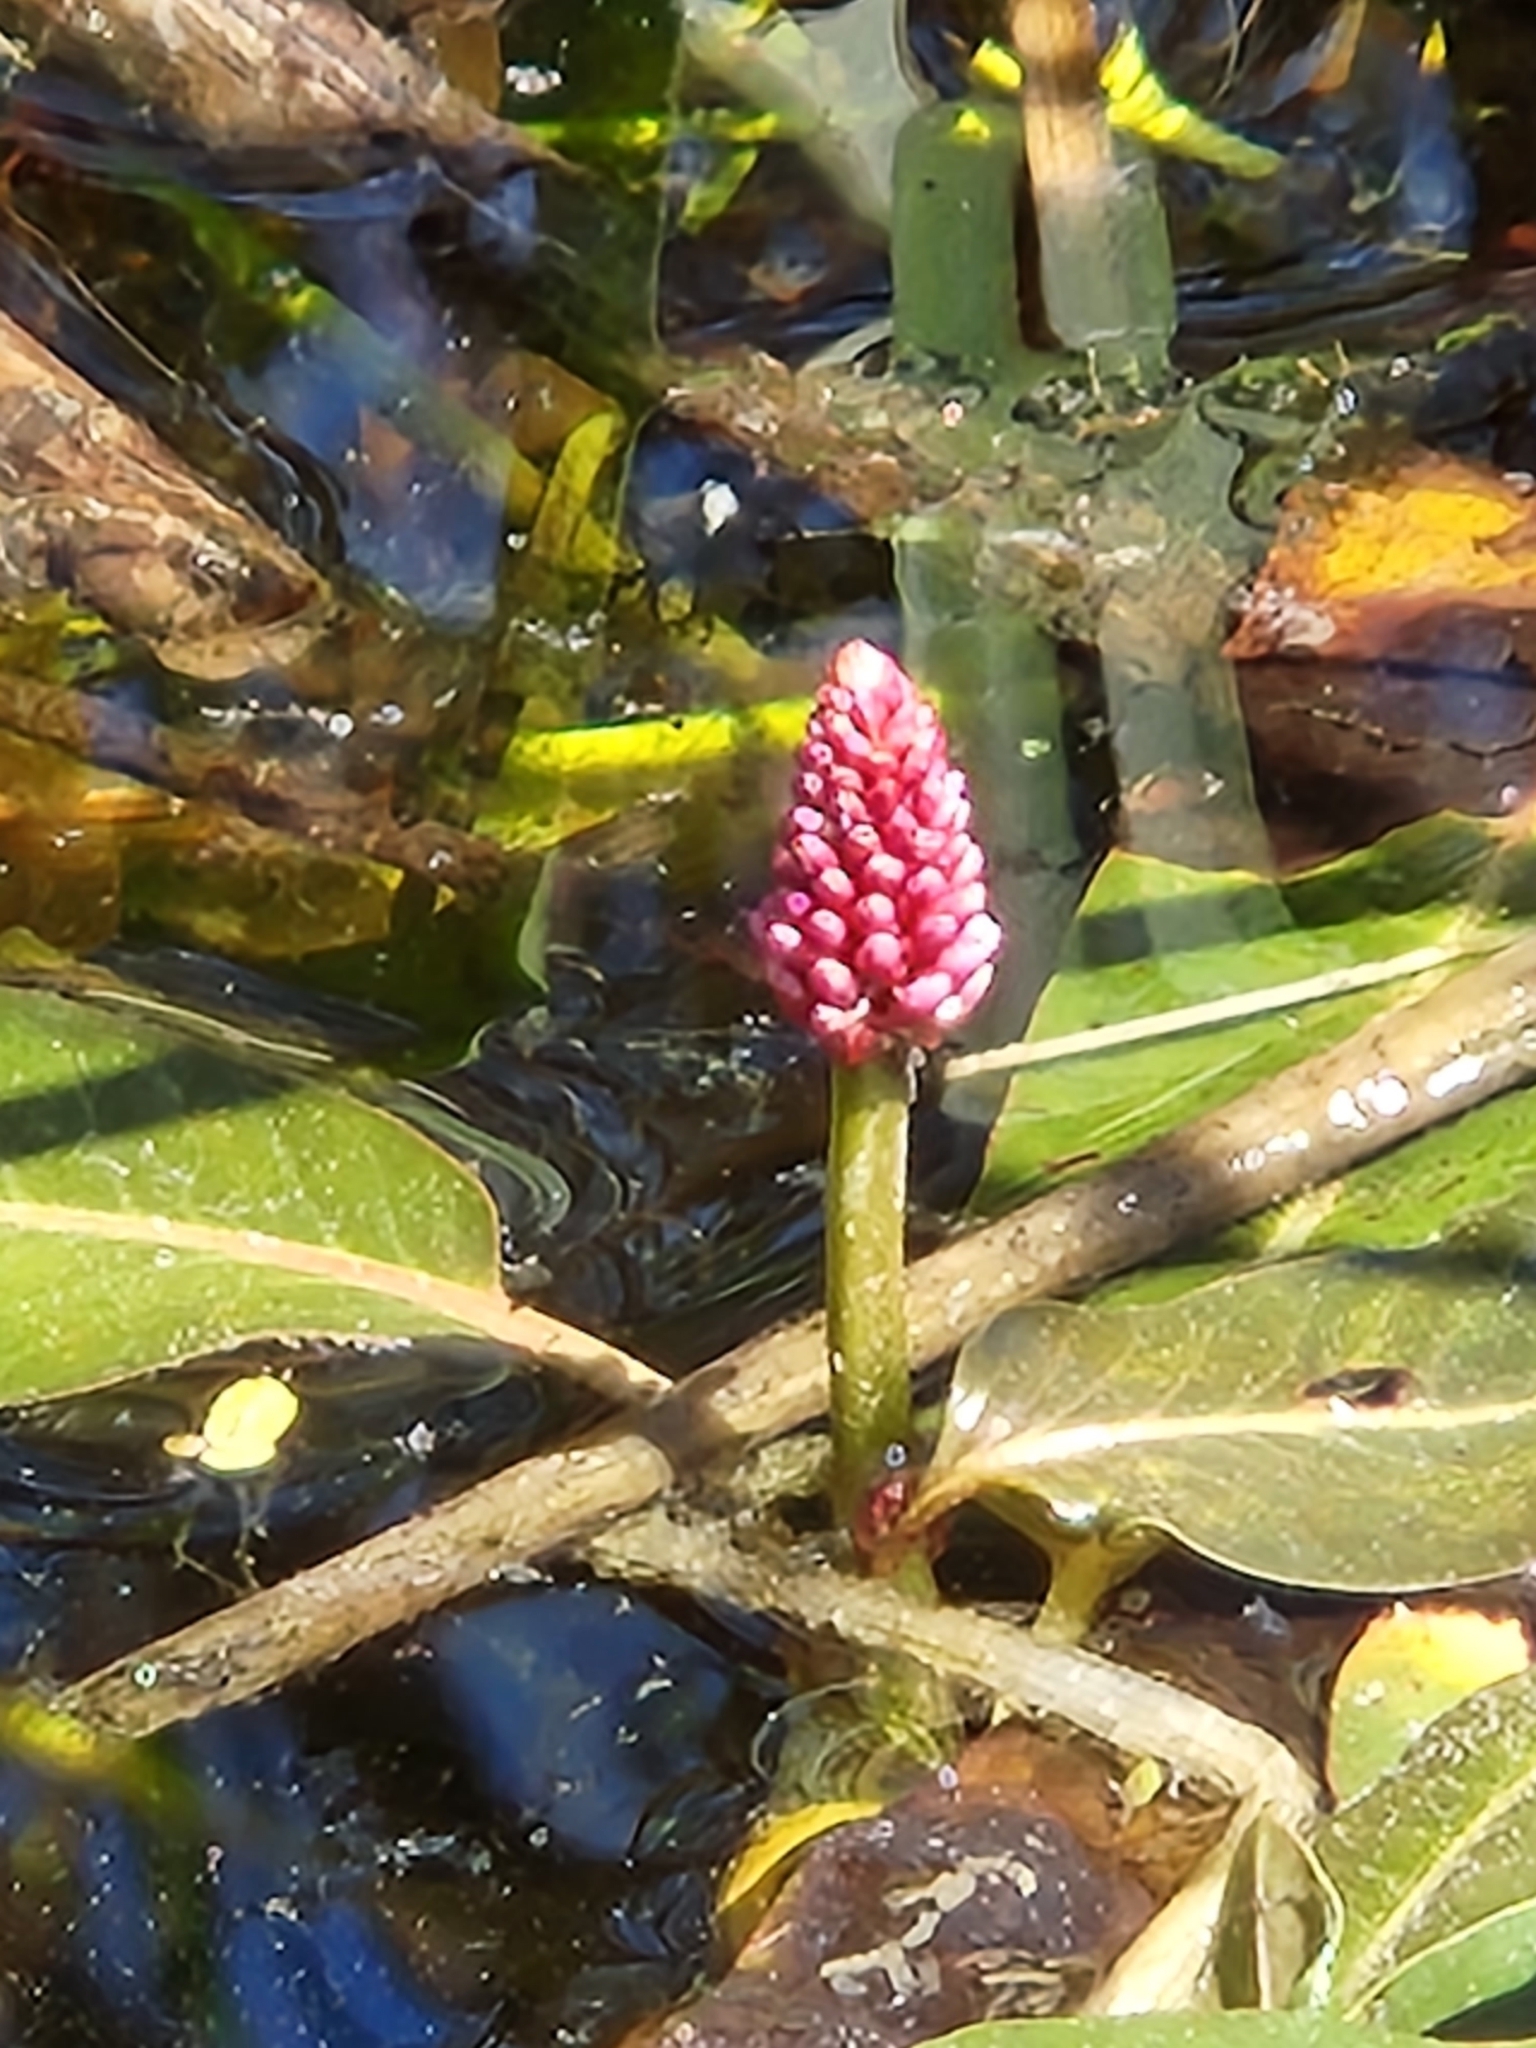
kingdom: Plantae
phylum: Tracheophyta
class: Magnoliopsida
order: Caryophyllales
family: Polygonaceae
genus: Persicaria
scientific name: Persicaria amphibia
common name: Amphibious bistort
